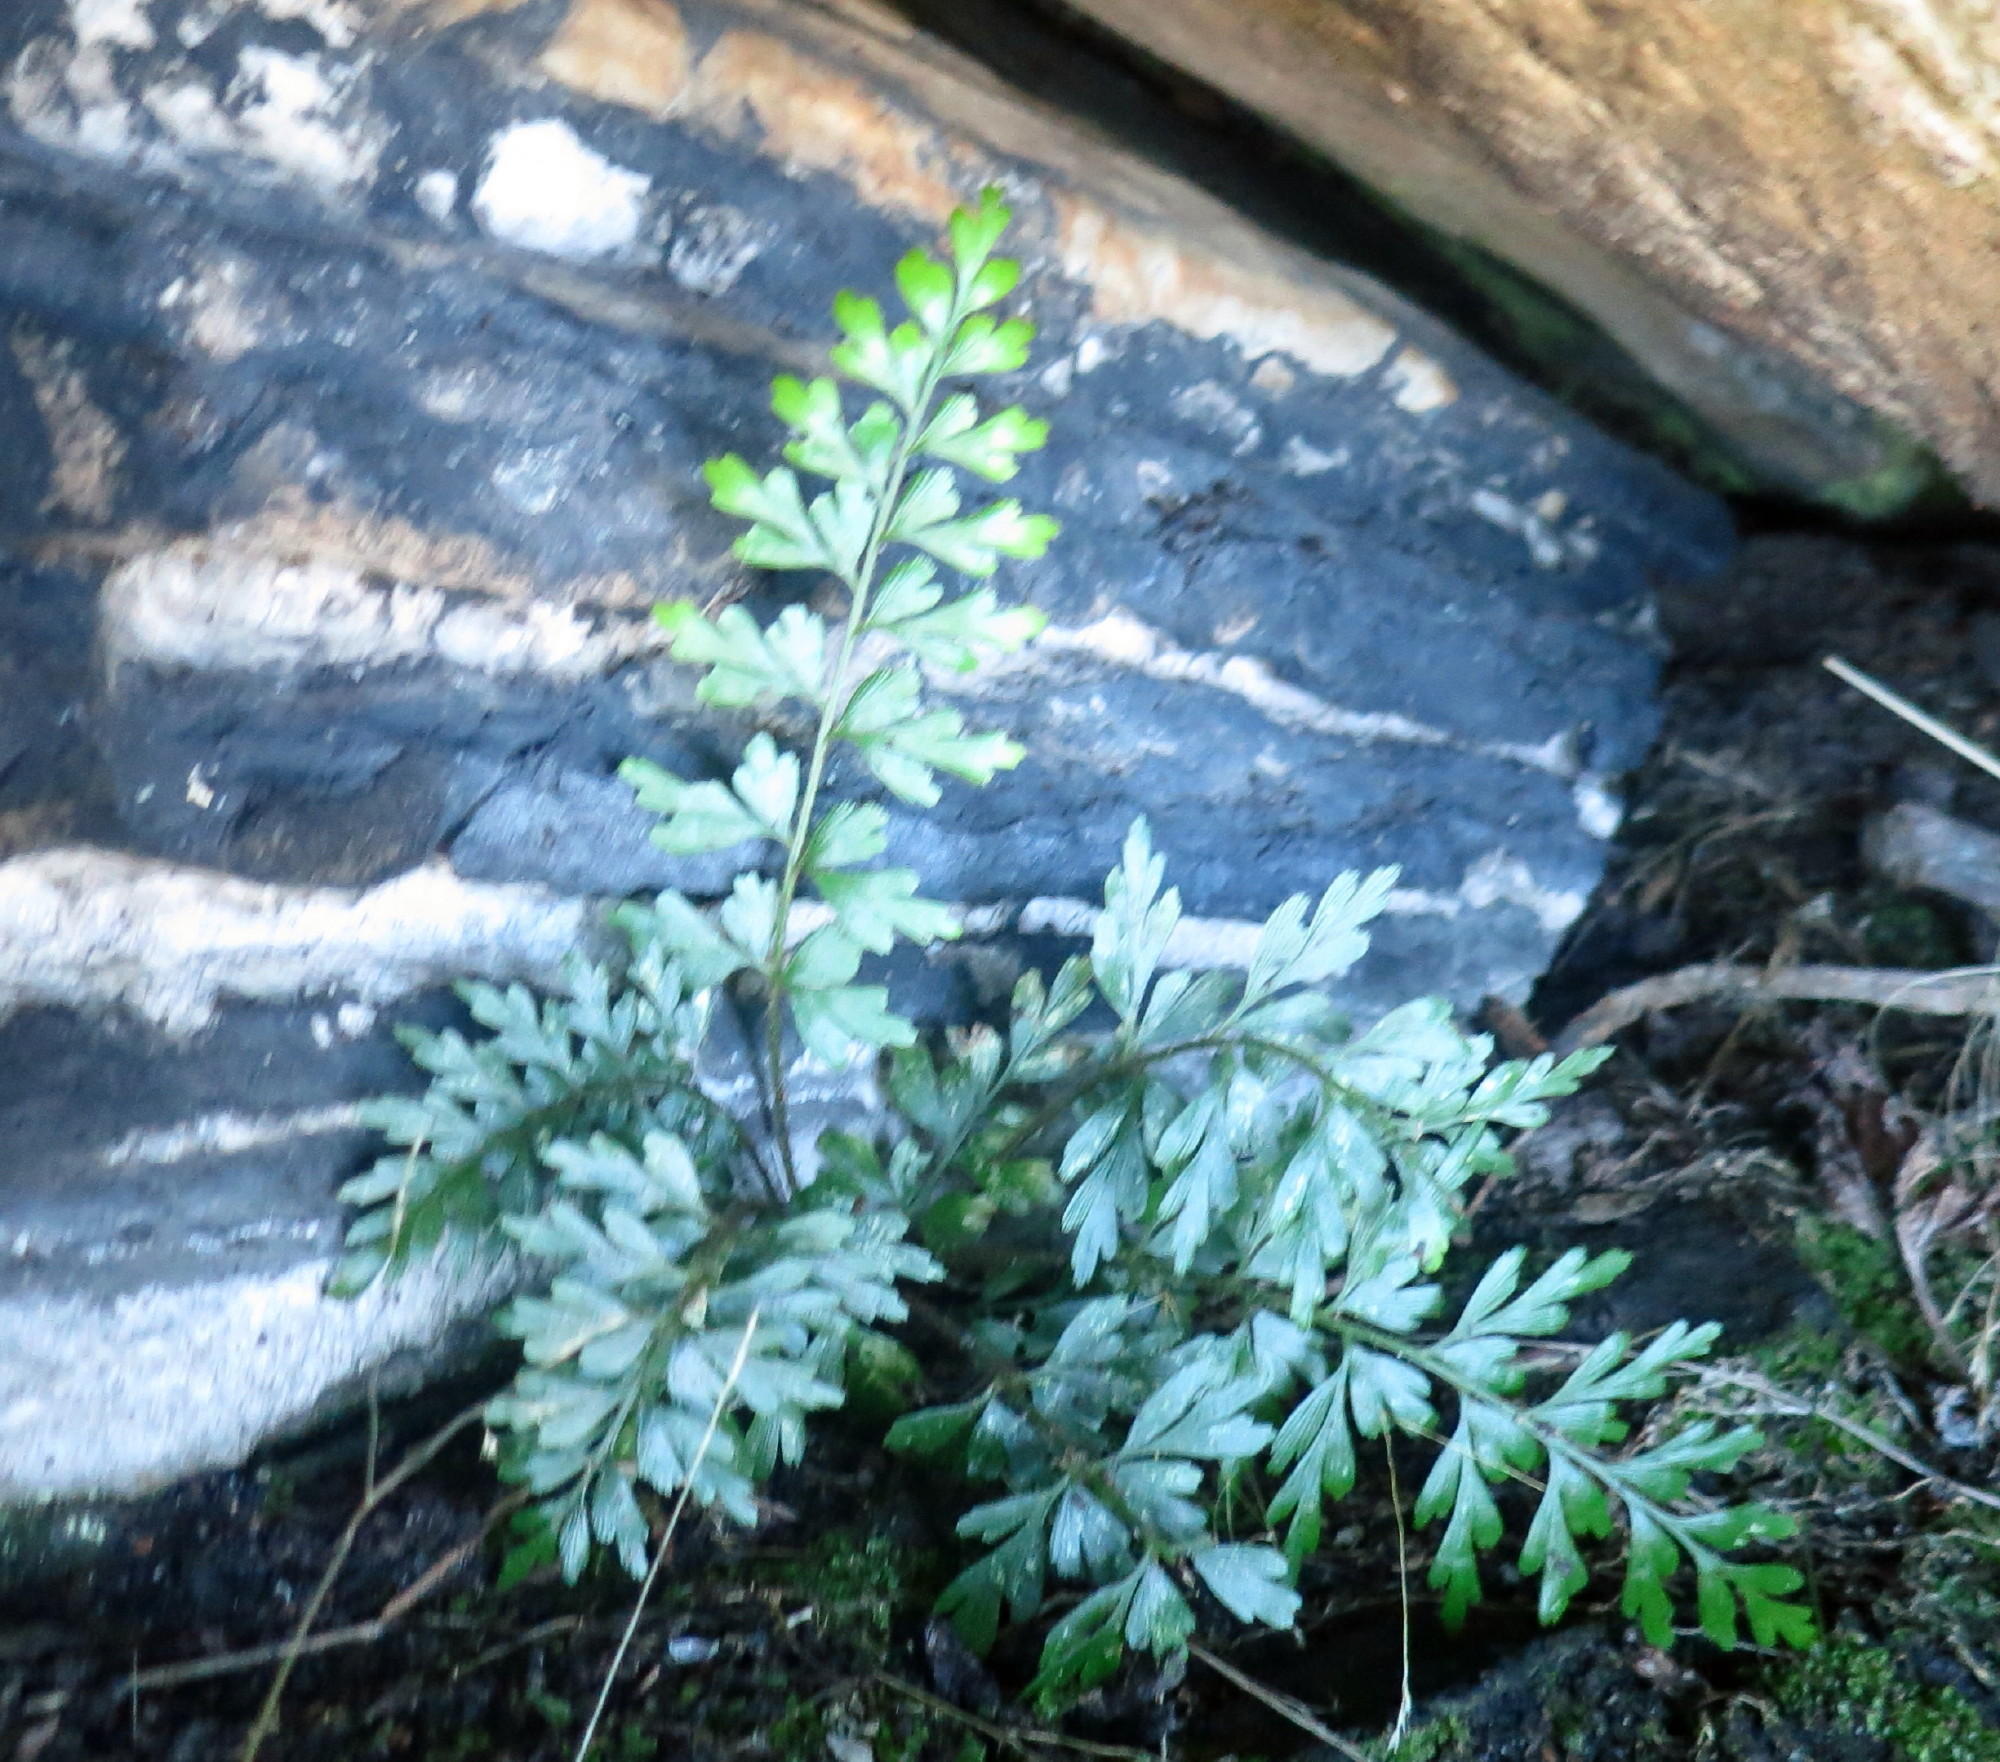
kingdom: Plantae
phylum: Tracheophyta
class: Polypodiopsida
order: Polypodiales
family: Aspleniaceae
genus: Asplenium
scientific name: Asplenium aethiopicum
